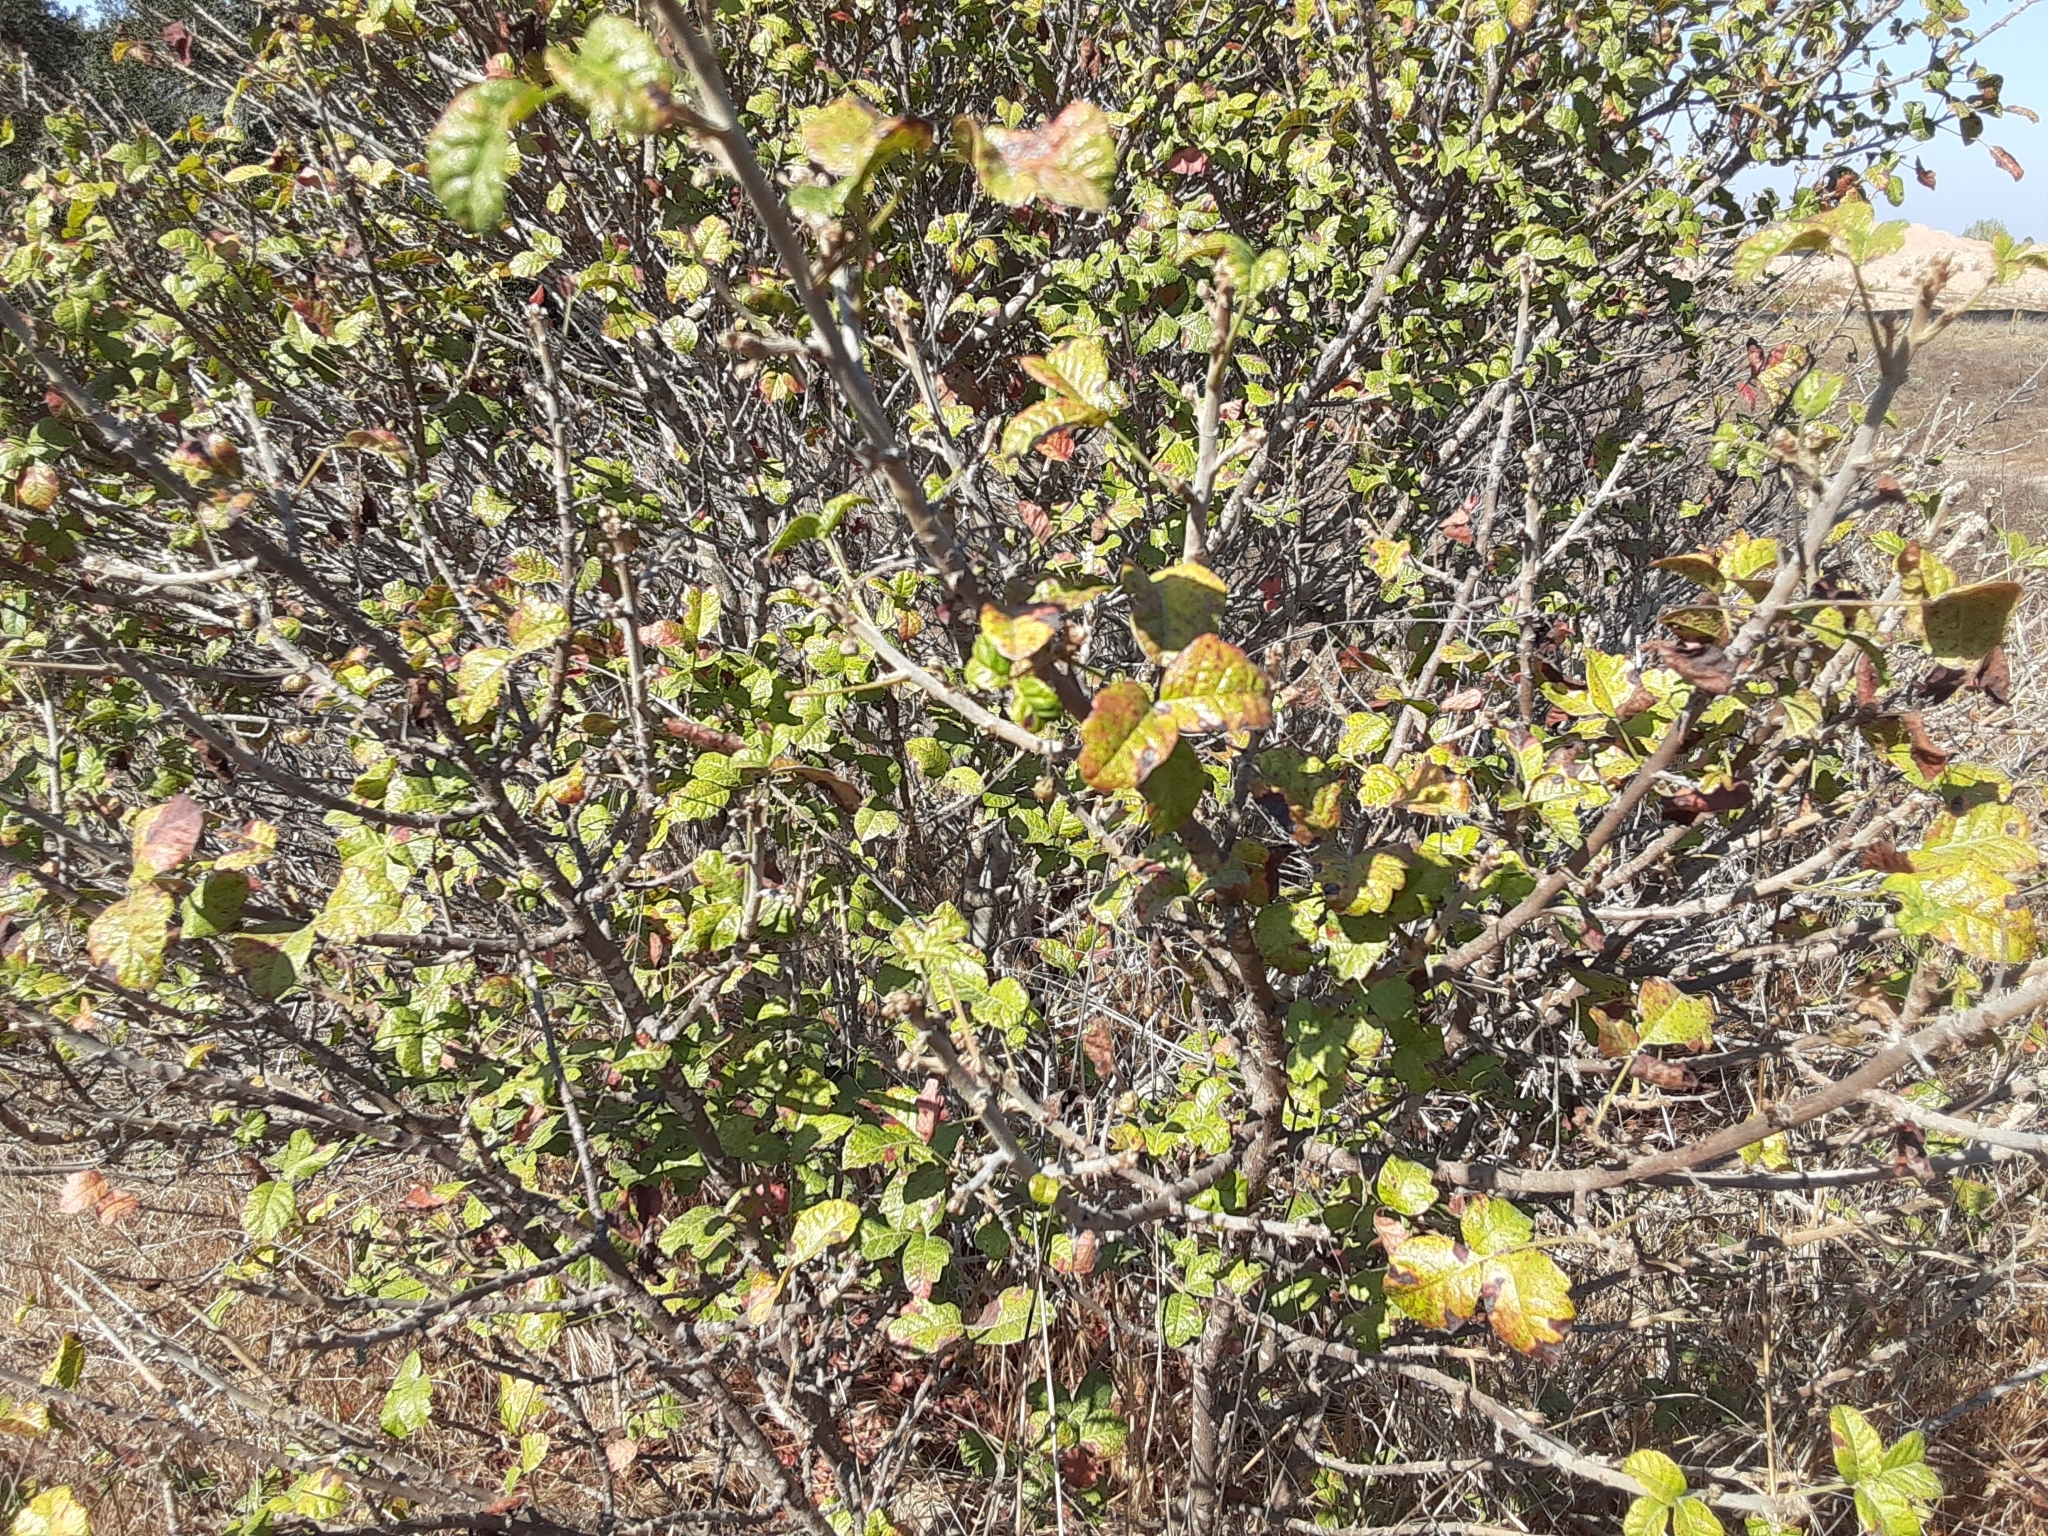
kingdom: Plantae
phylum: Tracheophyta
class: Magnoliopsida
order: Sapindales
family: Anacardiaceae
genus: Toxicodendron
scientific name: Toxicodendron diversilobum
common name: Pacific poison-oak
